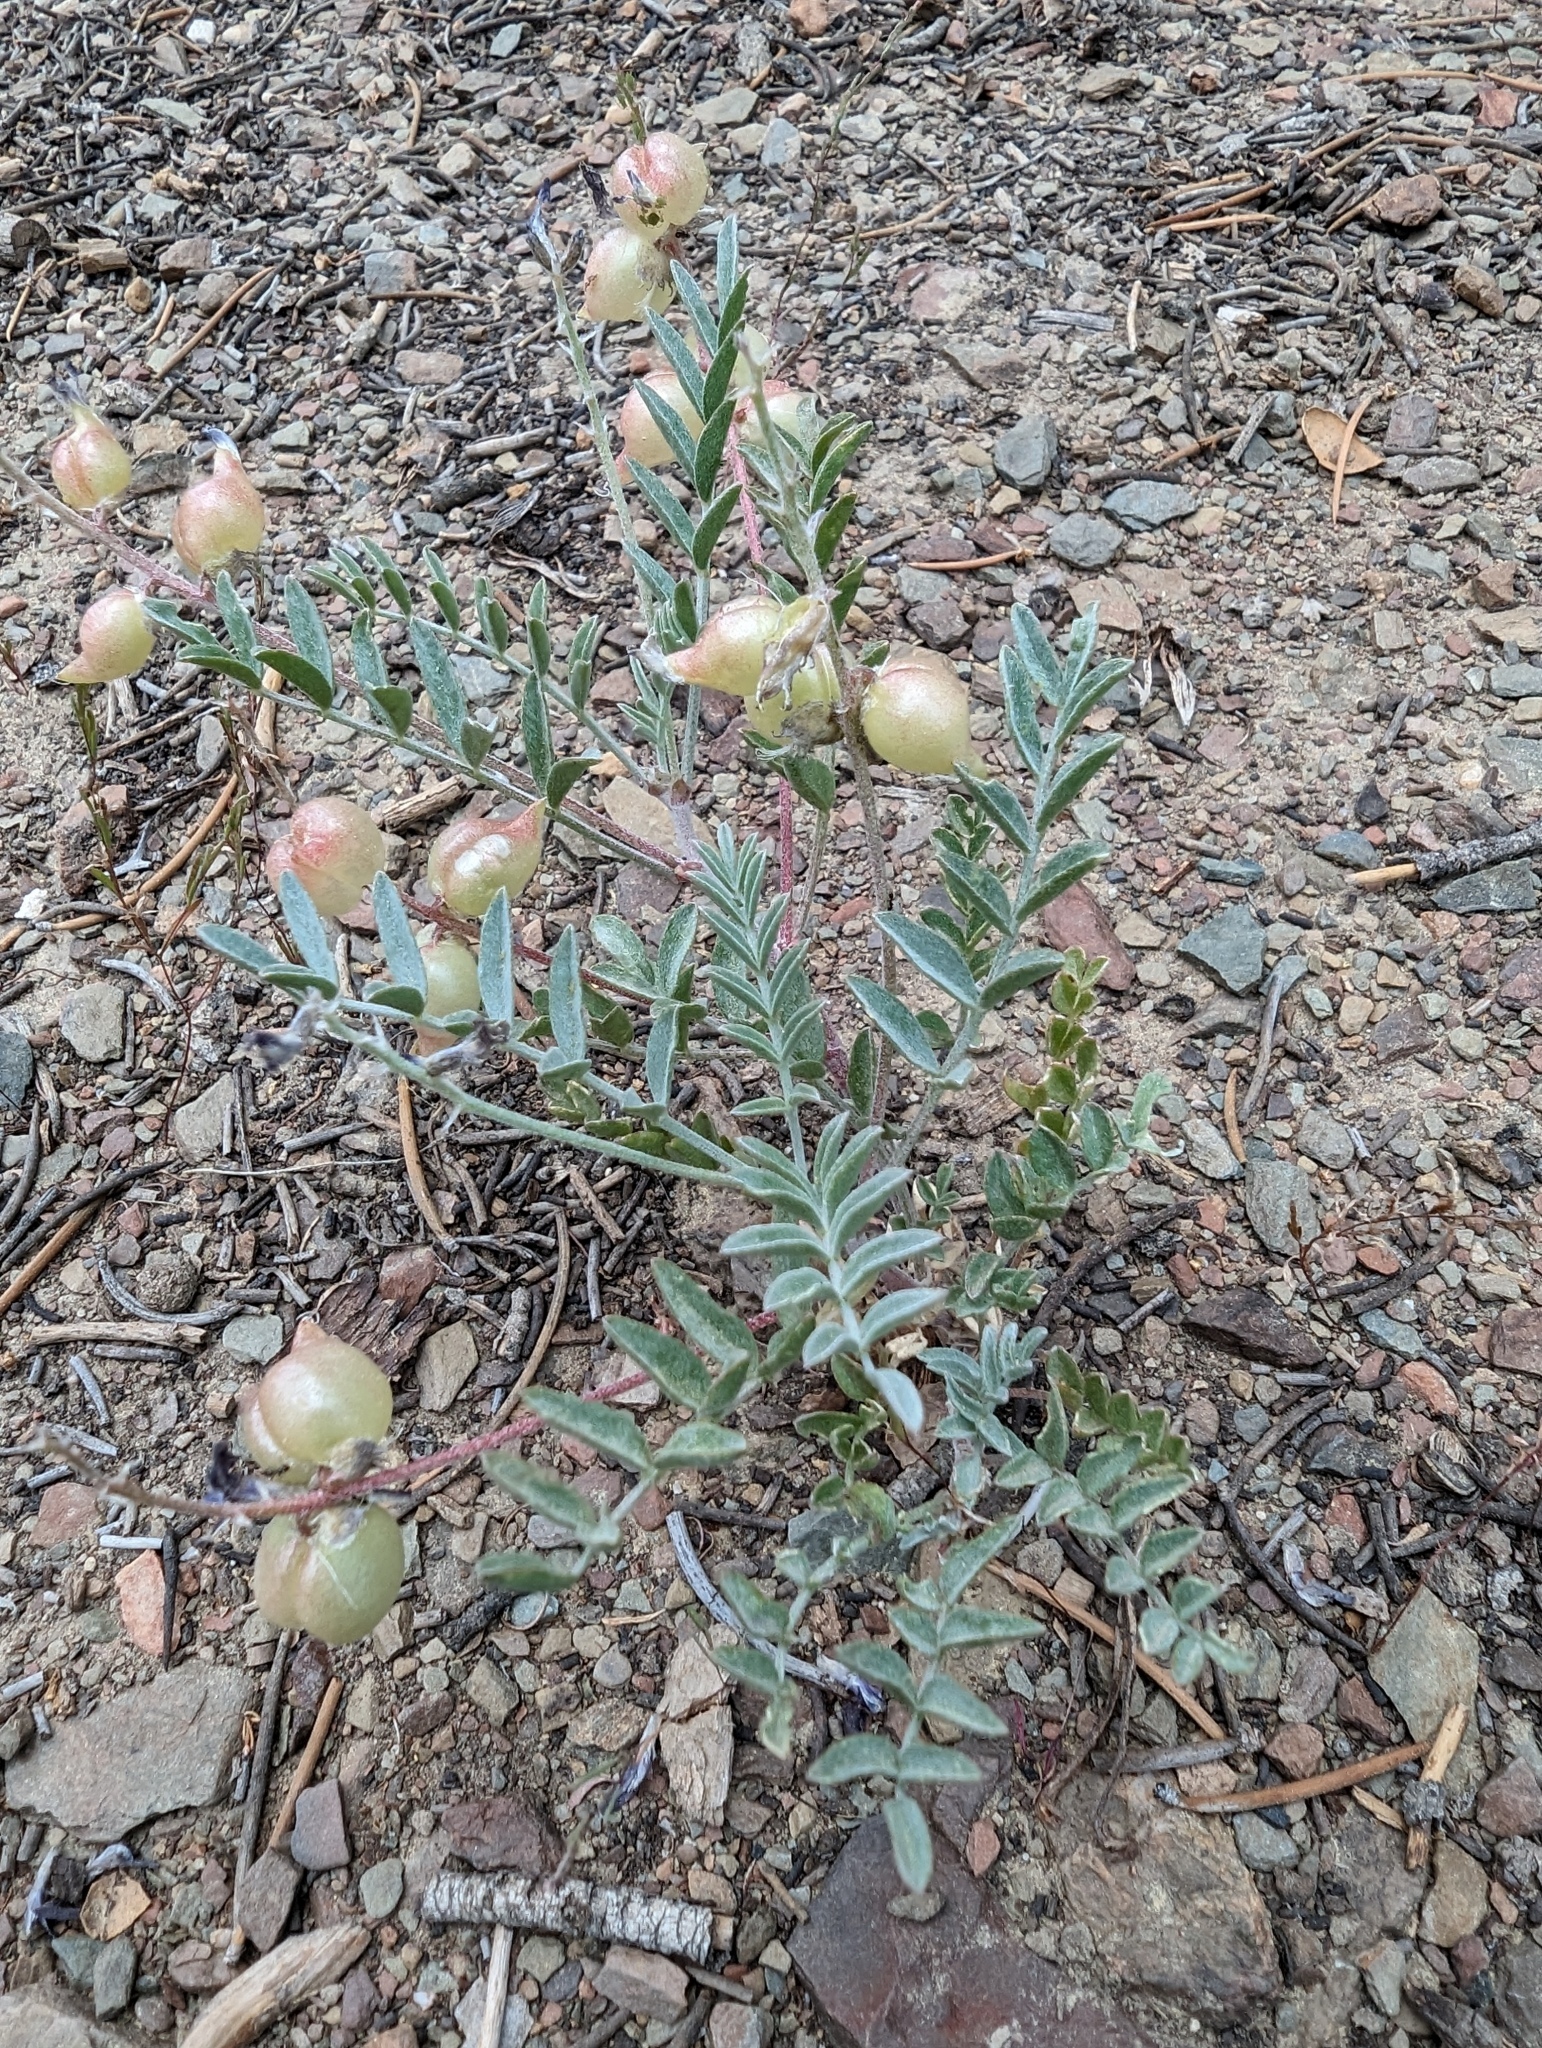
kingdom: Plantae
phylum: Tracheophyta
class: Magnoliopsida
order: Fabales
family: Fabaceae
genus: Astragalus
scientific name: Astragalus lentiginosus
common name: Freckled milkvetch
